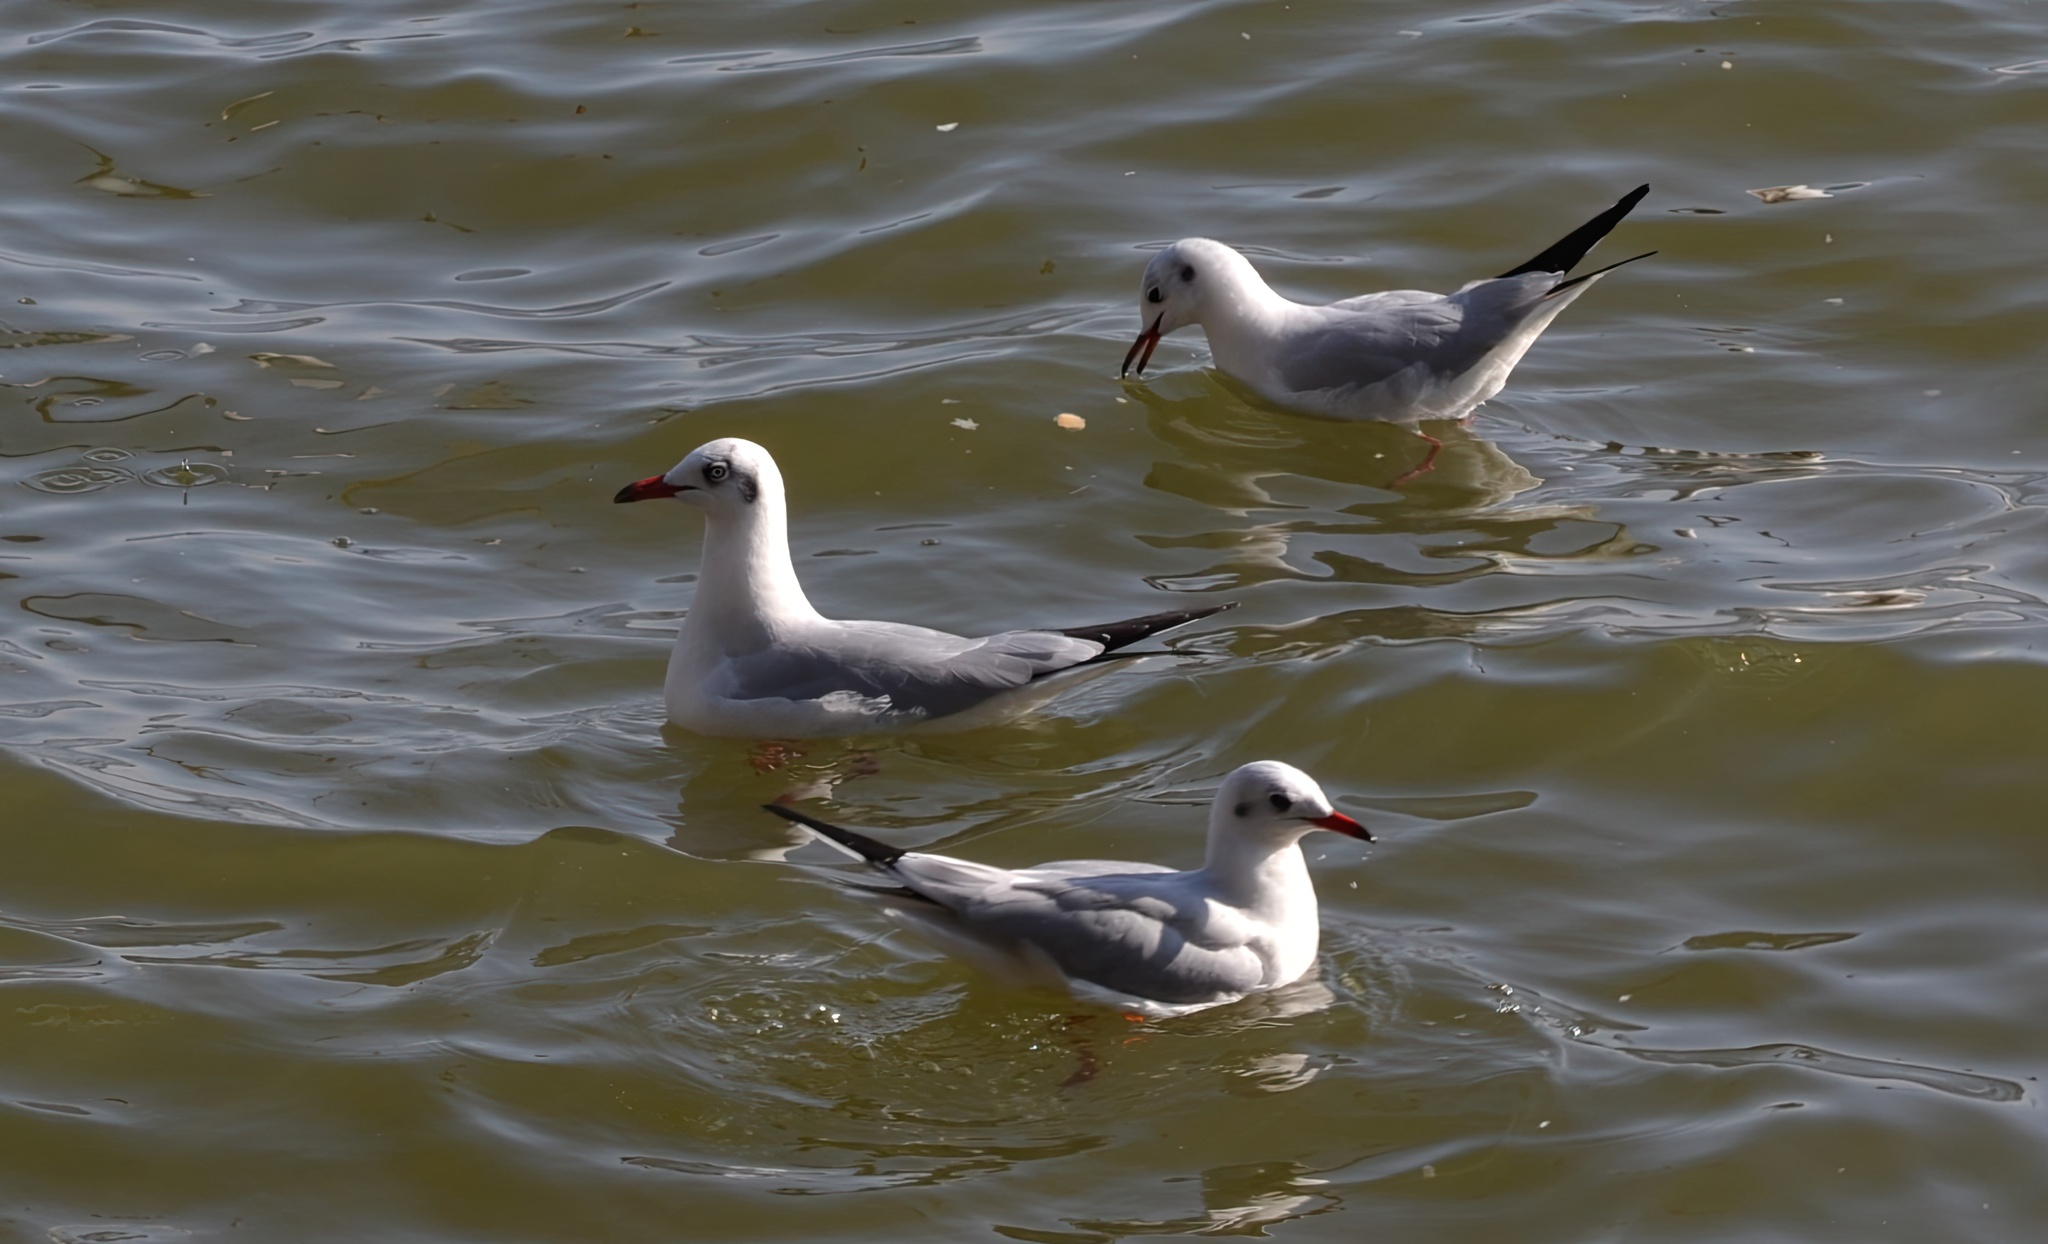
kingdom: Animalia
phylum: Chordata
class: Aves
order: Charadriiformes
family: Laridae
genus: Chroicocephalus
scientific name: Chroicocephalus brunnicephalus
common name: Brown-headed gull
